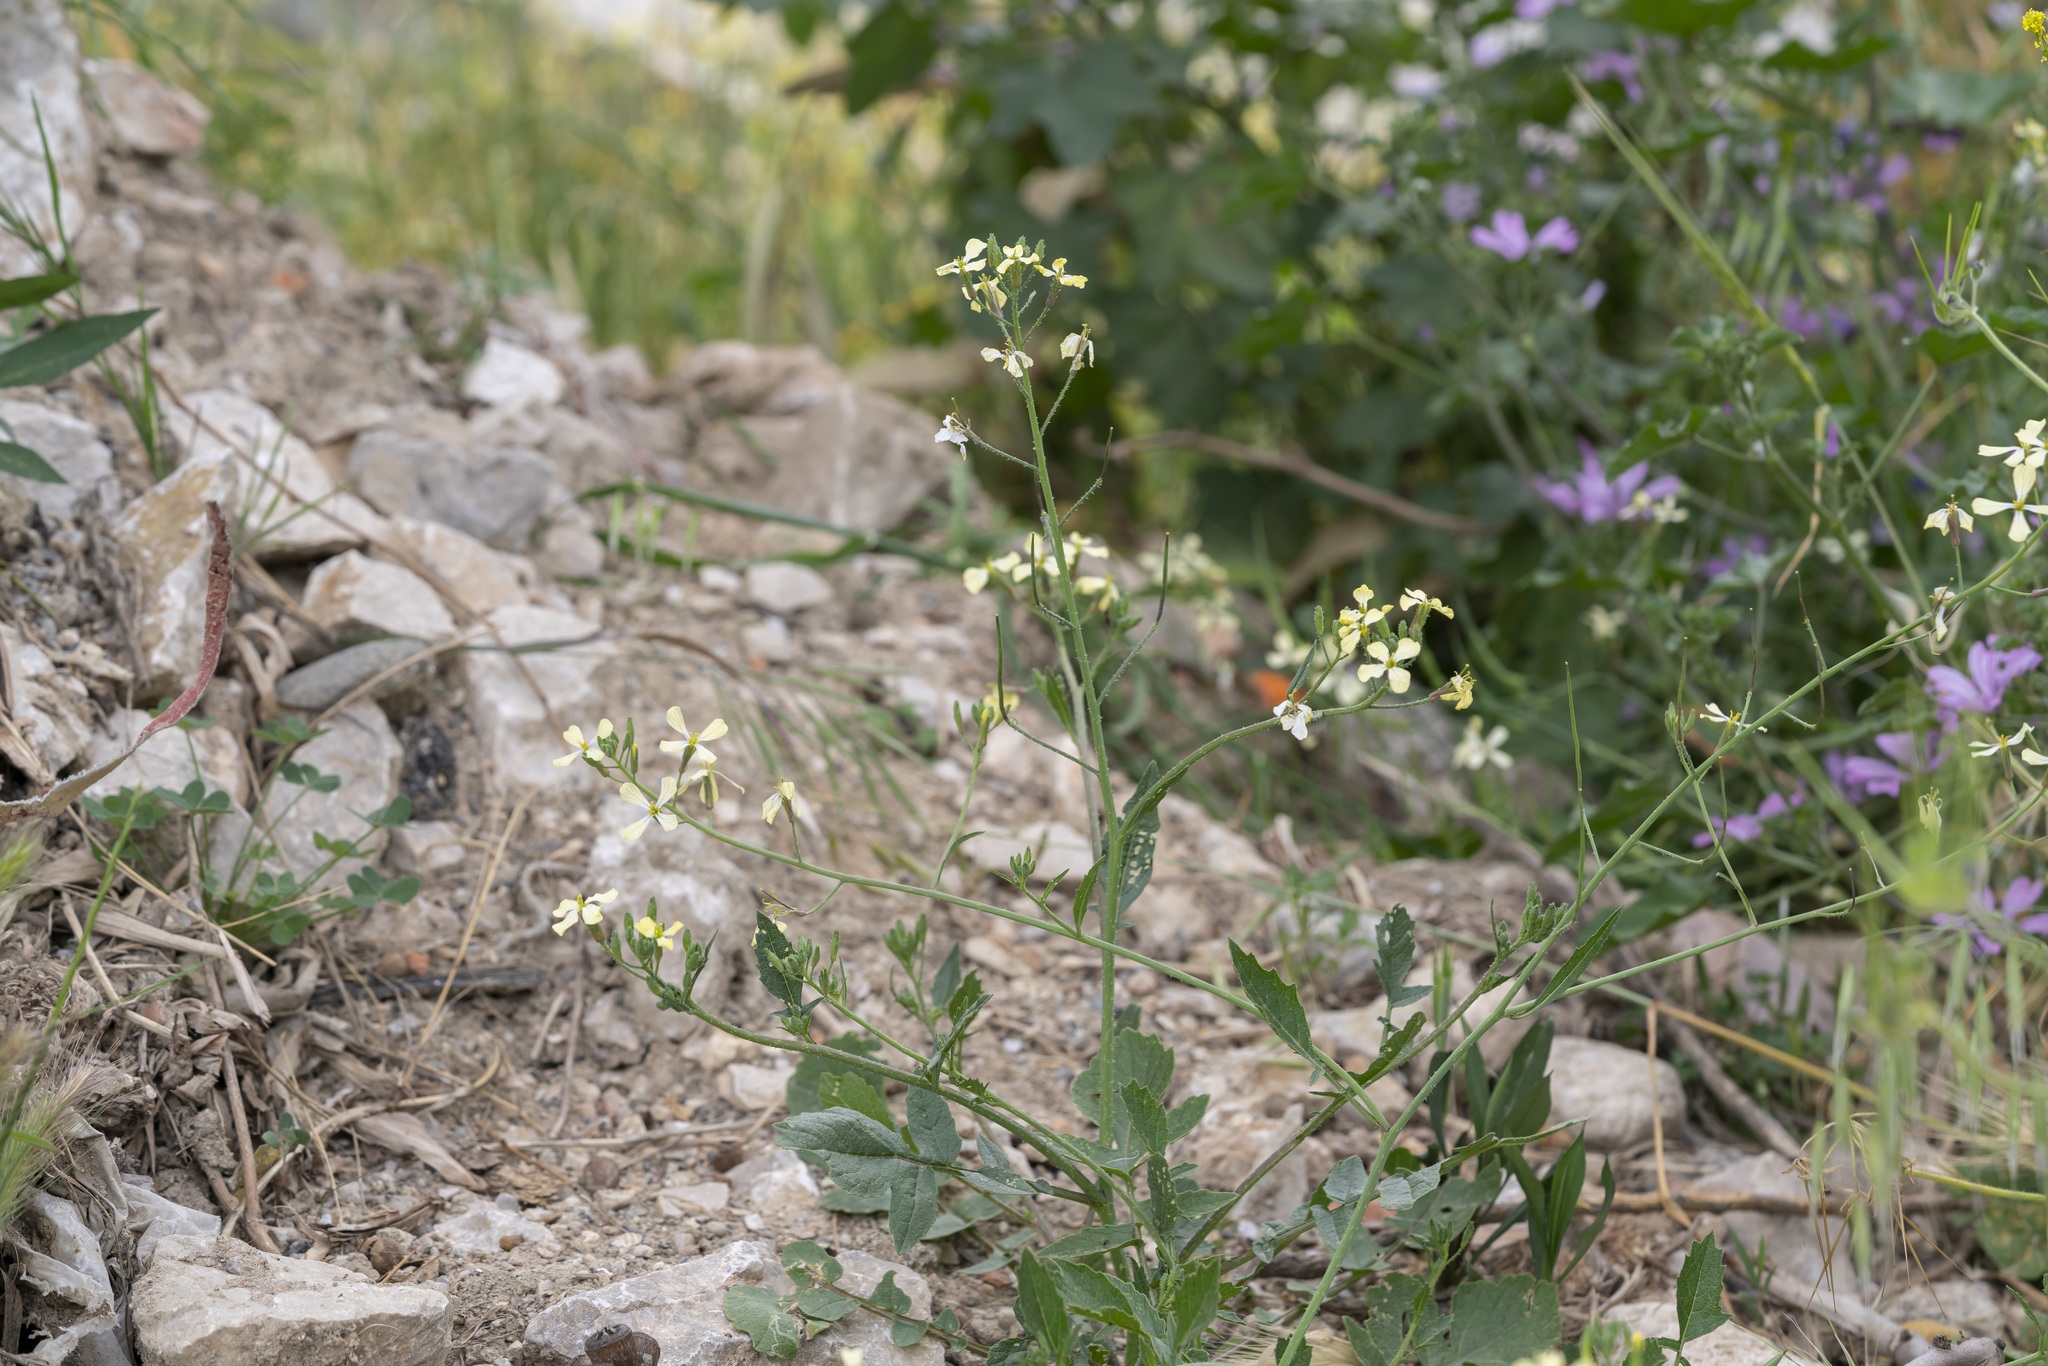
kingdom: Plantae
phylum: Tracheophyta
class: Magnoliopsida
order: Brassicales
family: Brassicaceae
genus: Raphanus
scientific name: Raphanus raphanistrum
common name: Wild radish
